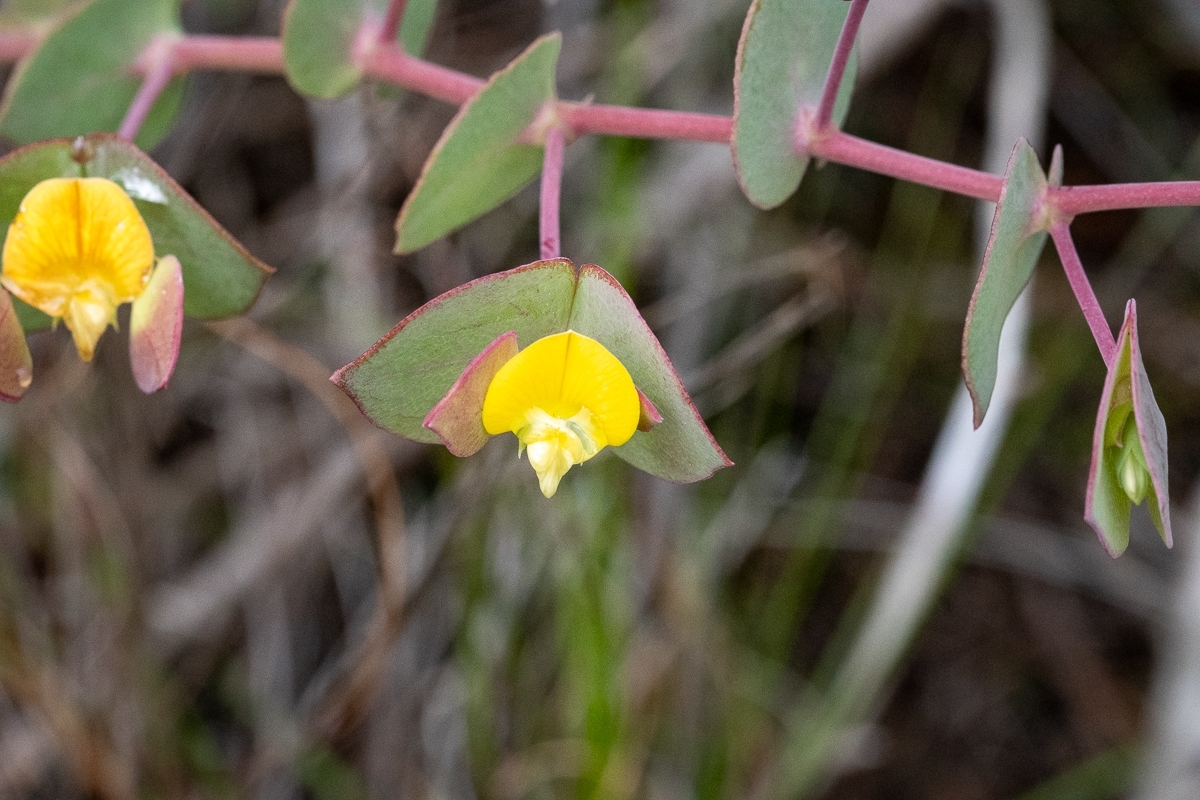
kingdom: Plantae
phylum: Tracheophyta
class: Magnoliopsida
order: Fabales
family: Fabaceae
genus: Rafnia
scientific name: Rafnia acuminata
